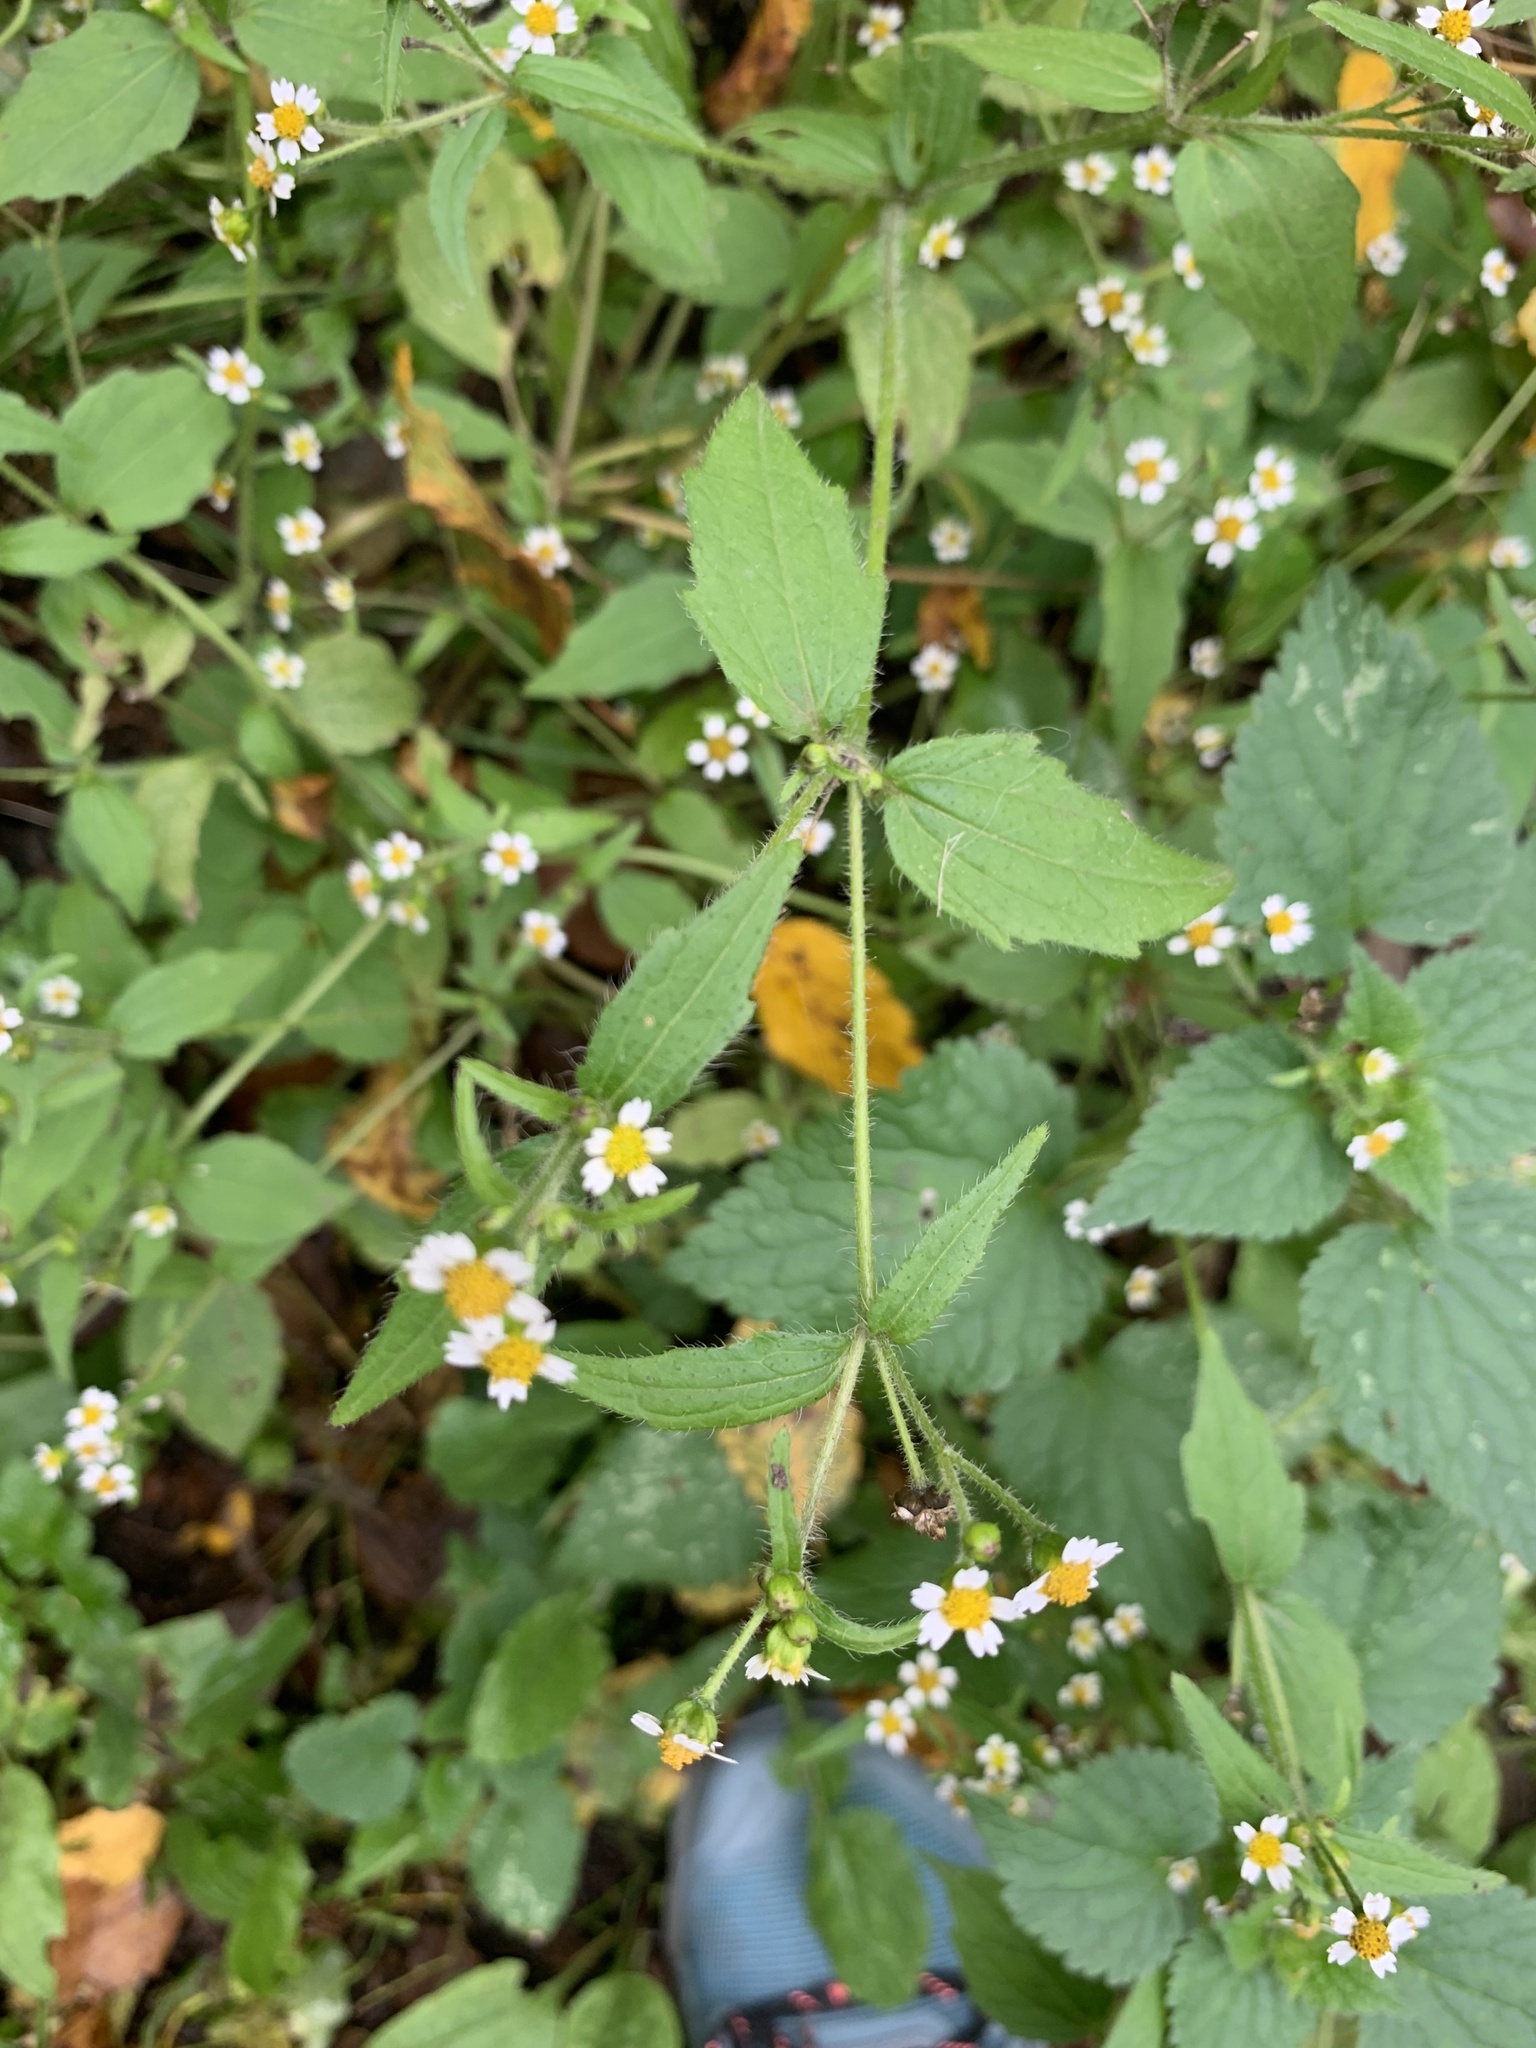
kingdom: Plantae
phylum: Tracheophyta
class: Magnoliopsida
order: Asterales
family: Asteraceae
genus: Galinsoga
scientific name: Galinsoga quadriradiata
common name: Shaggy soldier
